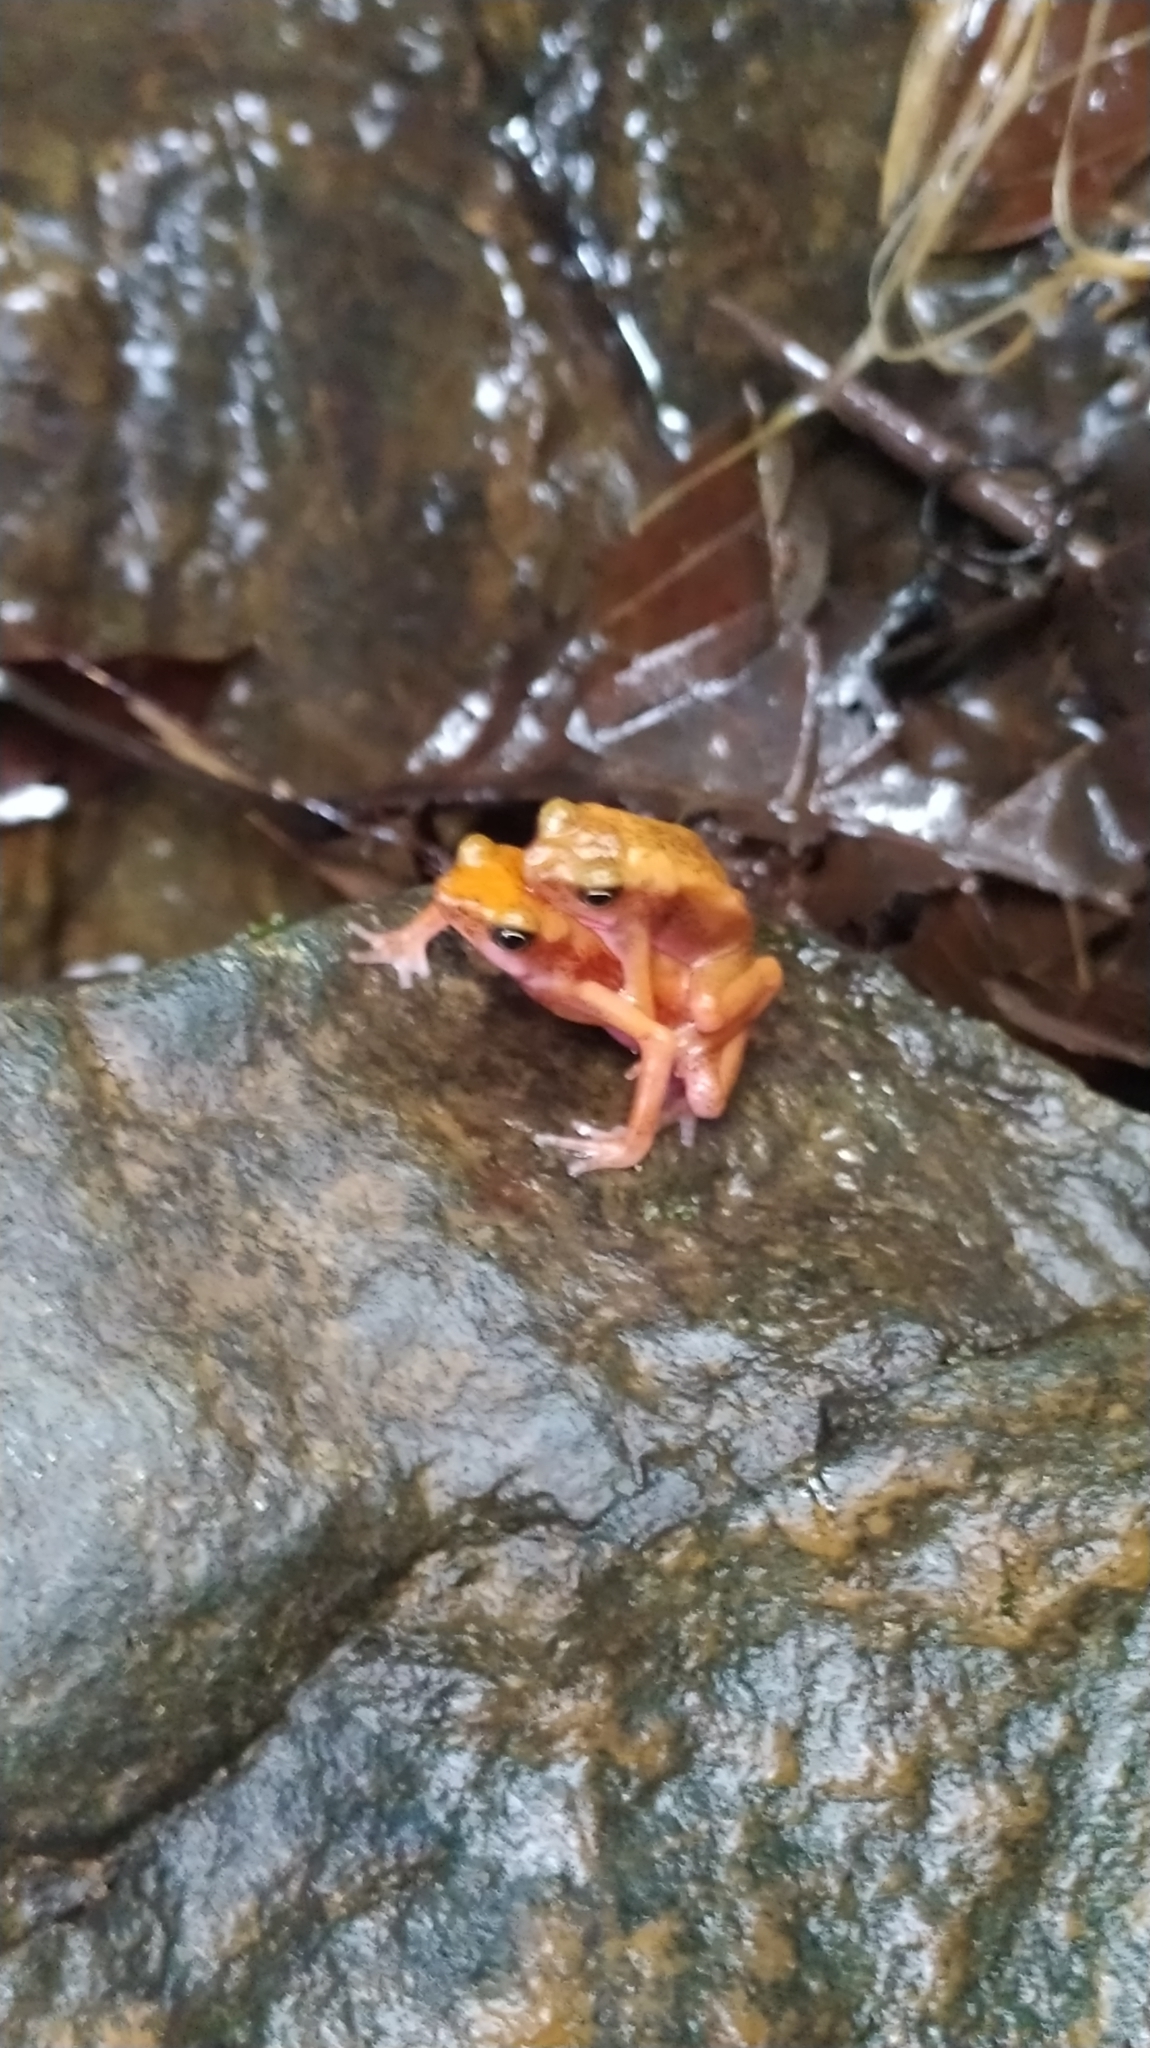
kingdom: Animalia
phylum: Chordata
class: Amphibia
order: Anura
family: Bufonidae
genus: Atelopus
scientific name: Atelopus flavescens
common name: Cayenne stubfoot toad
